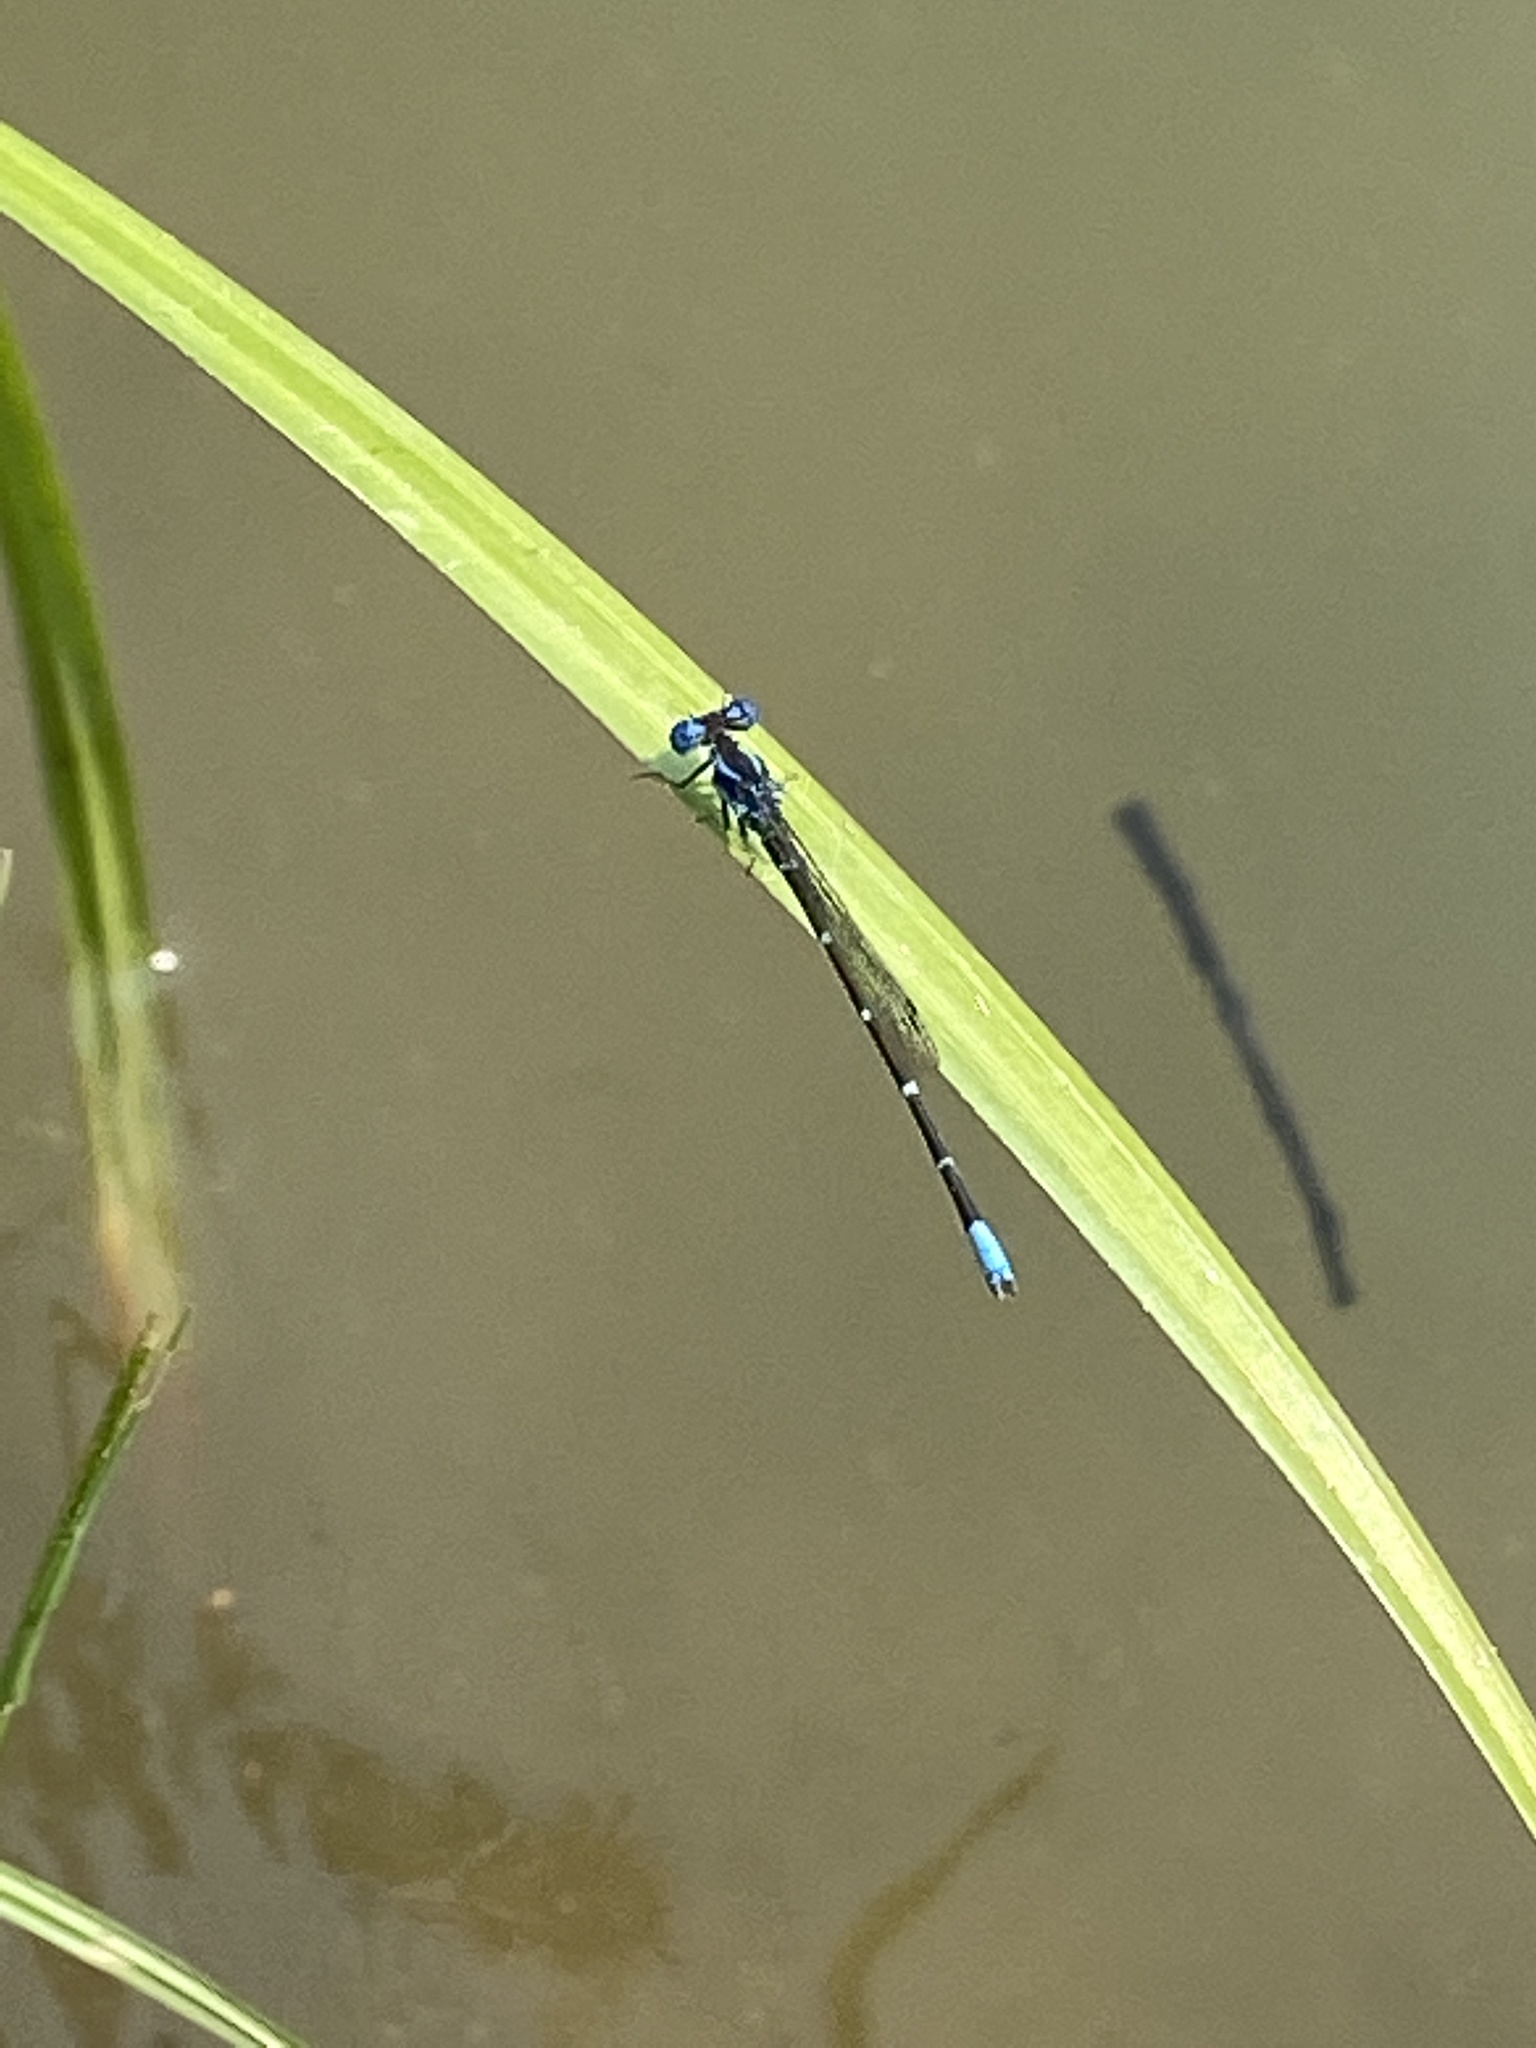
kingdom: Animalia
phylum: Arthropoda
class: Insecta
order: Odonata
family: Coenagrionidae
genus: Argia
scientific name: Argia sedula
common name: Blue-ringed dancer
